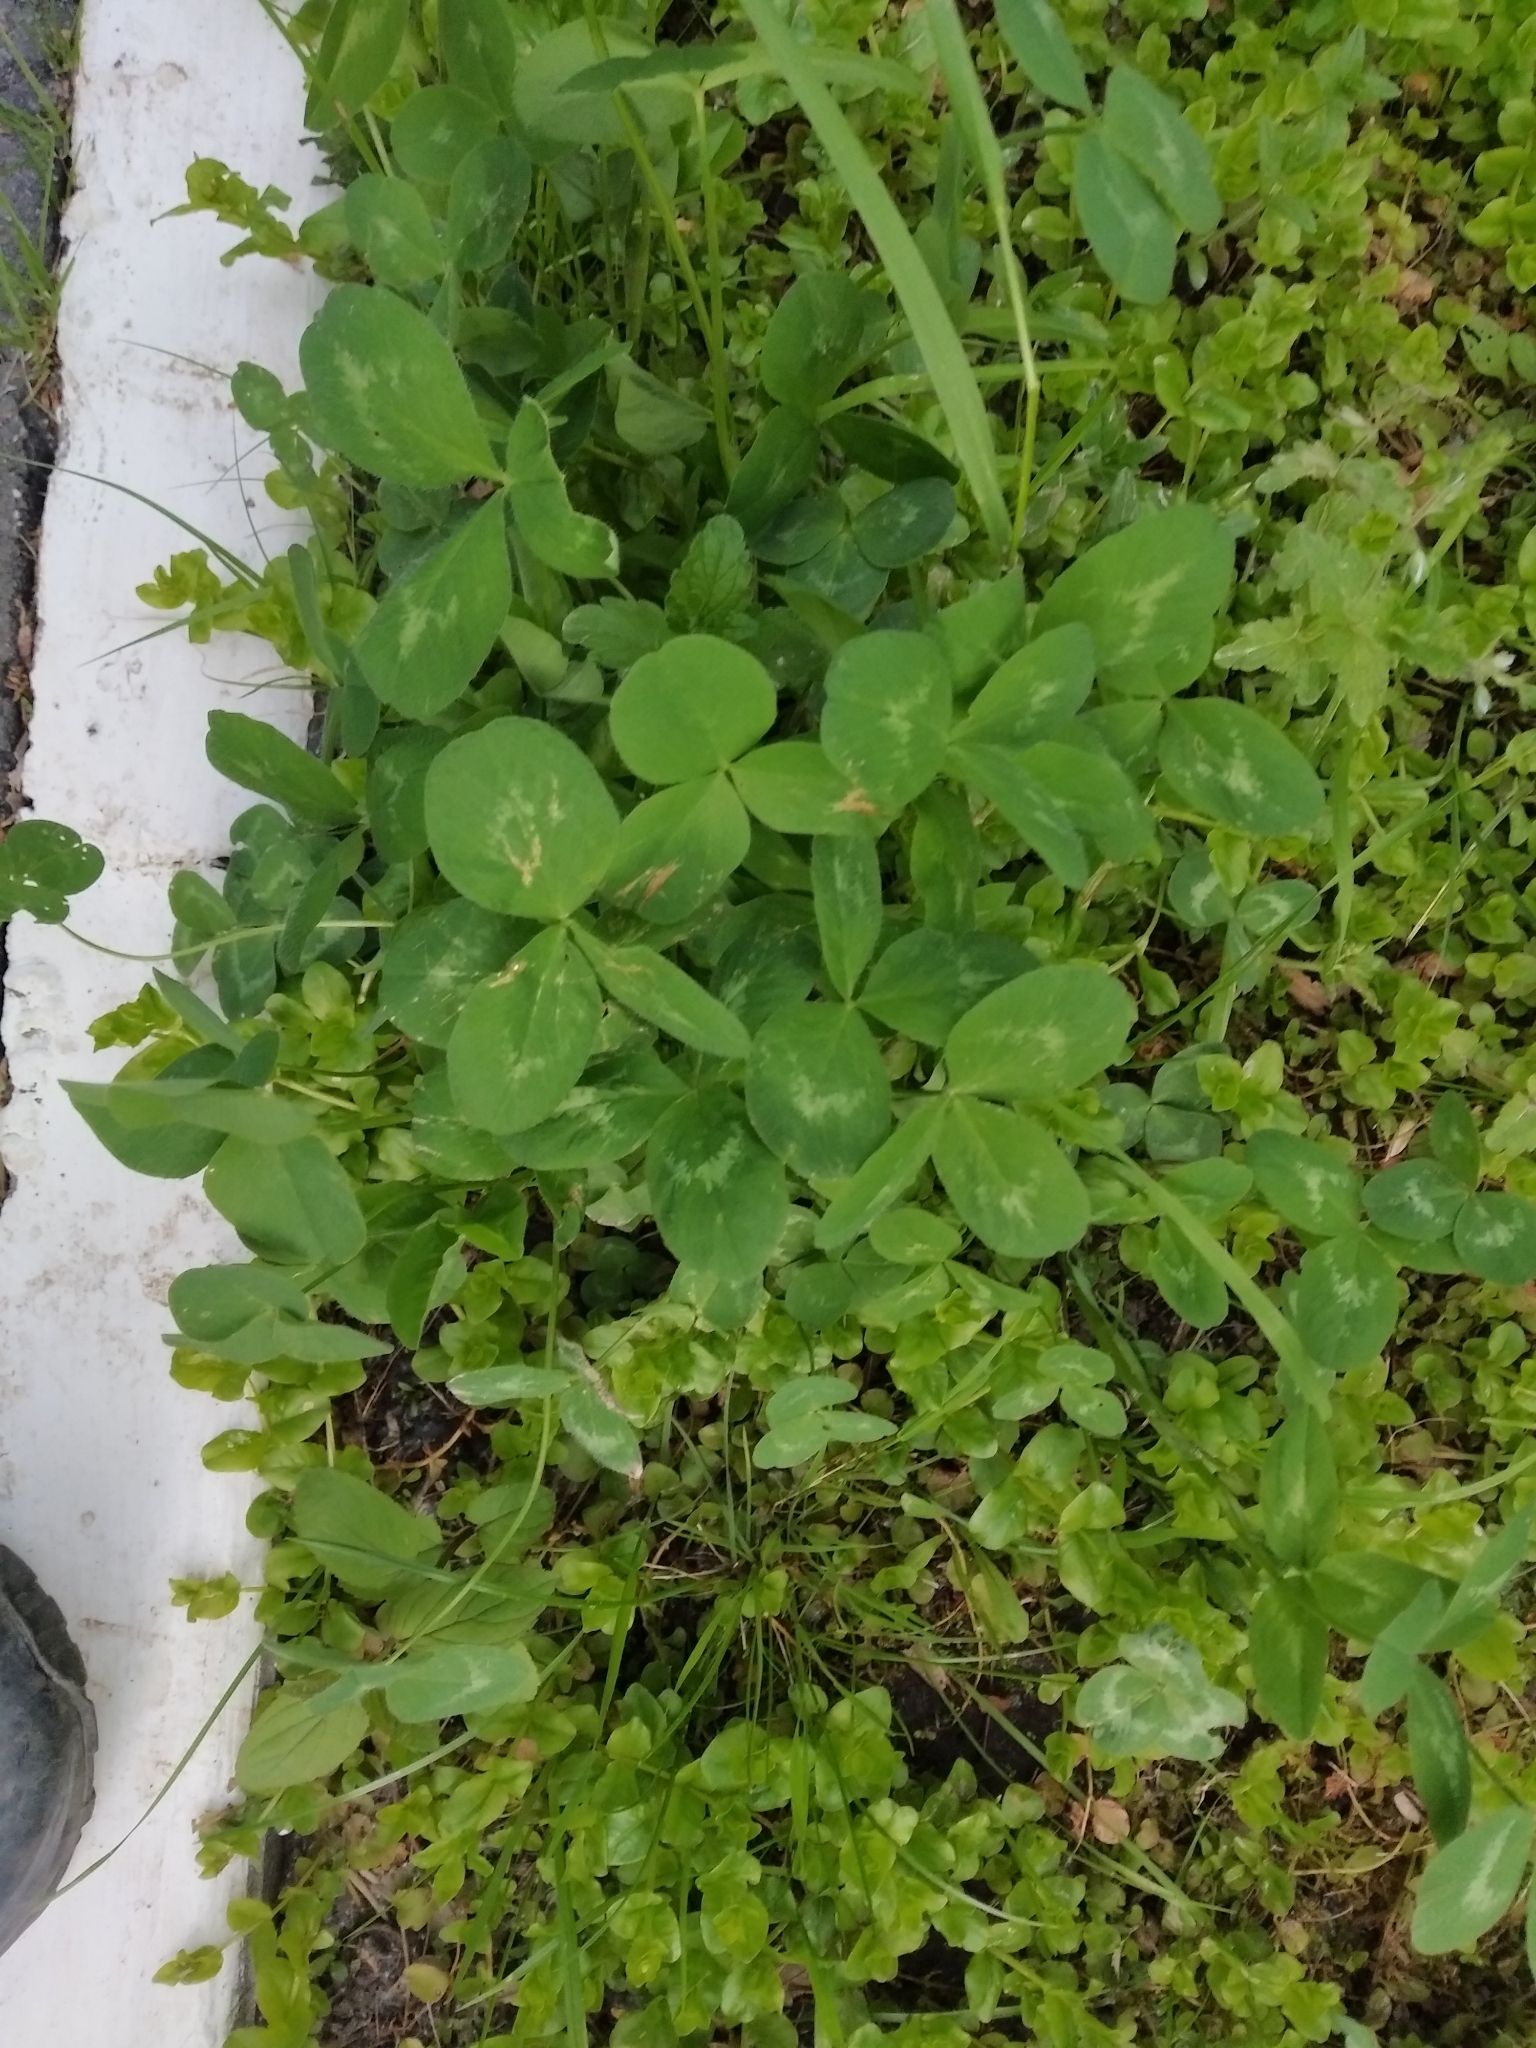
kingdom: Plantae
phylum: Tracheophyta
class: Magnoliopsida
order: Fabales
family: Fabaceae
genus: Trifolium
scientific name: Trifolium pratense
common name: Red clover
